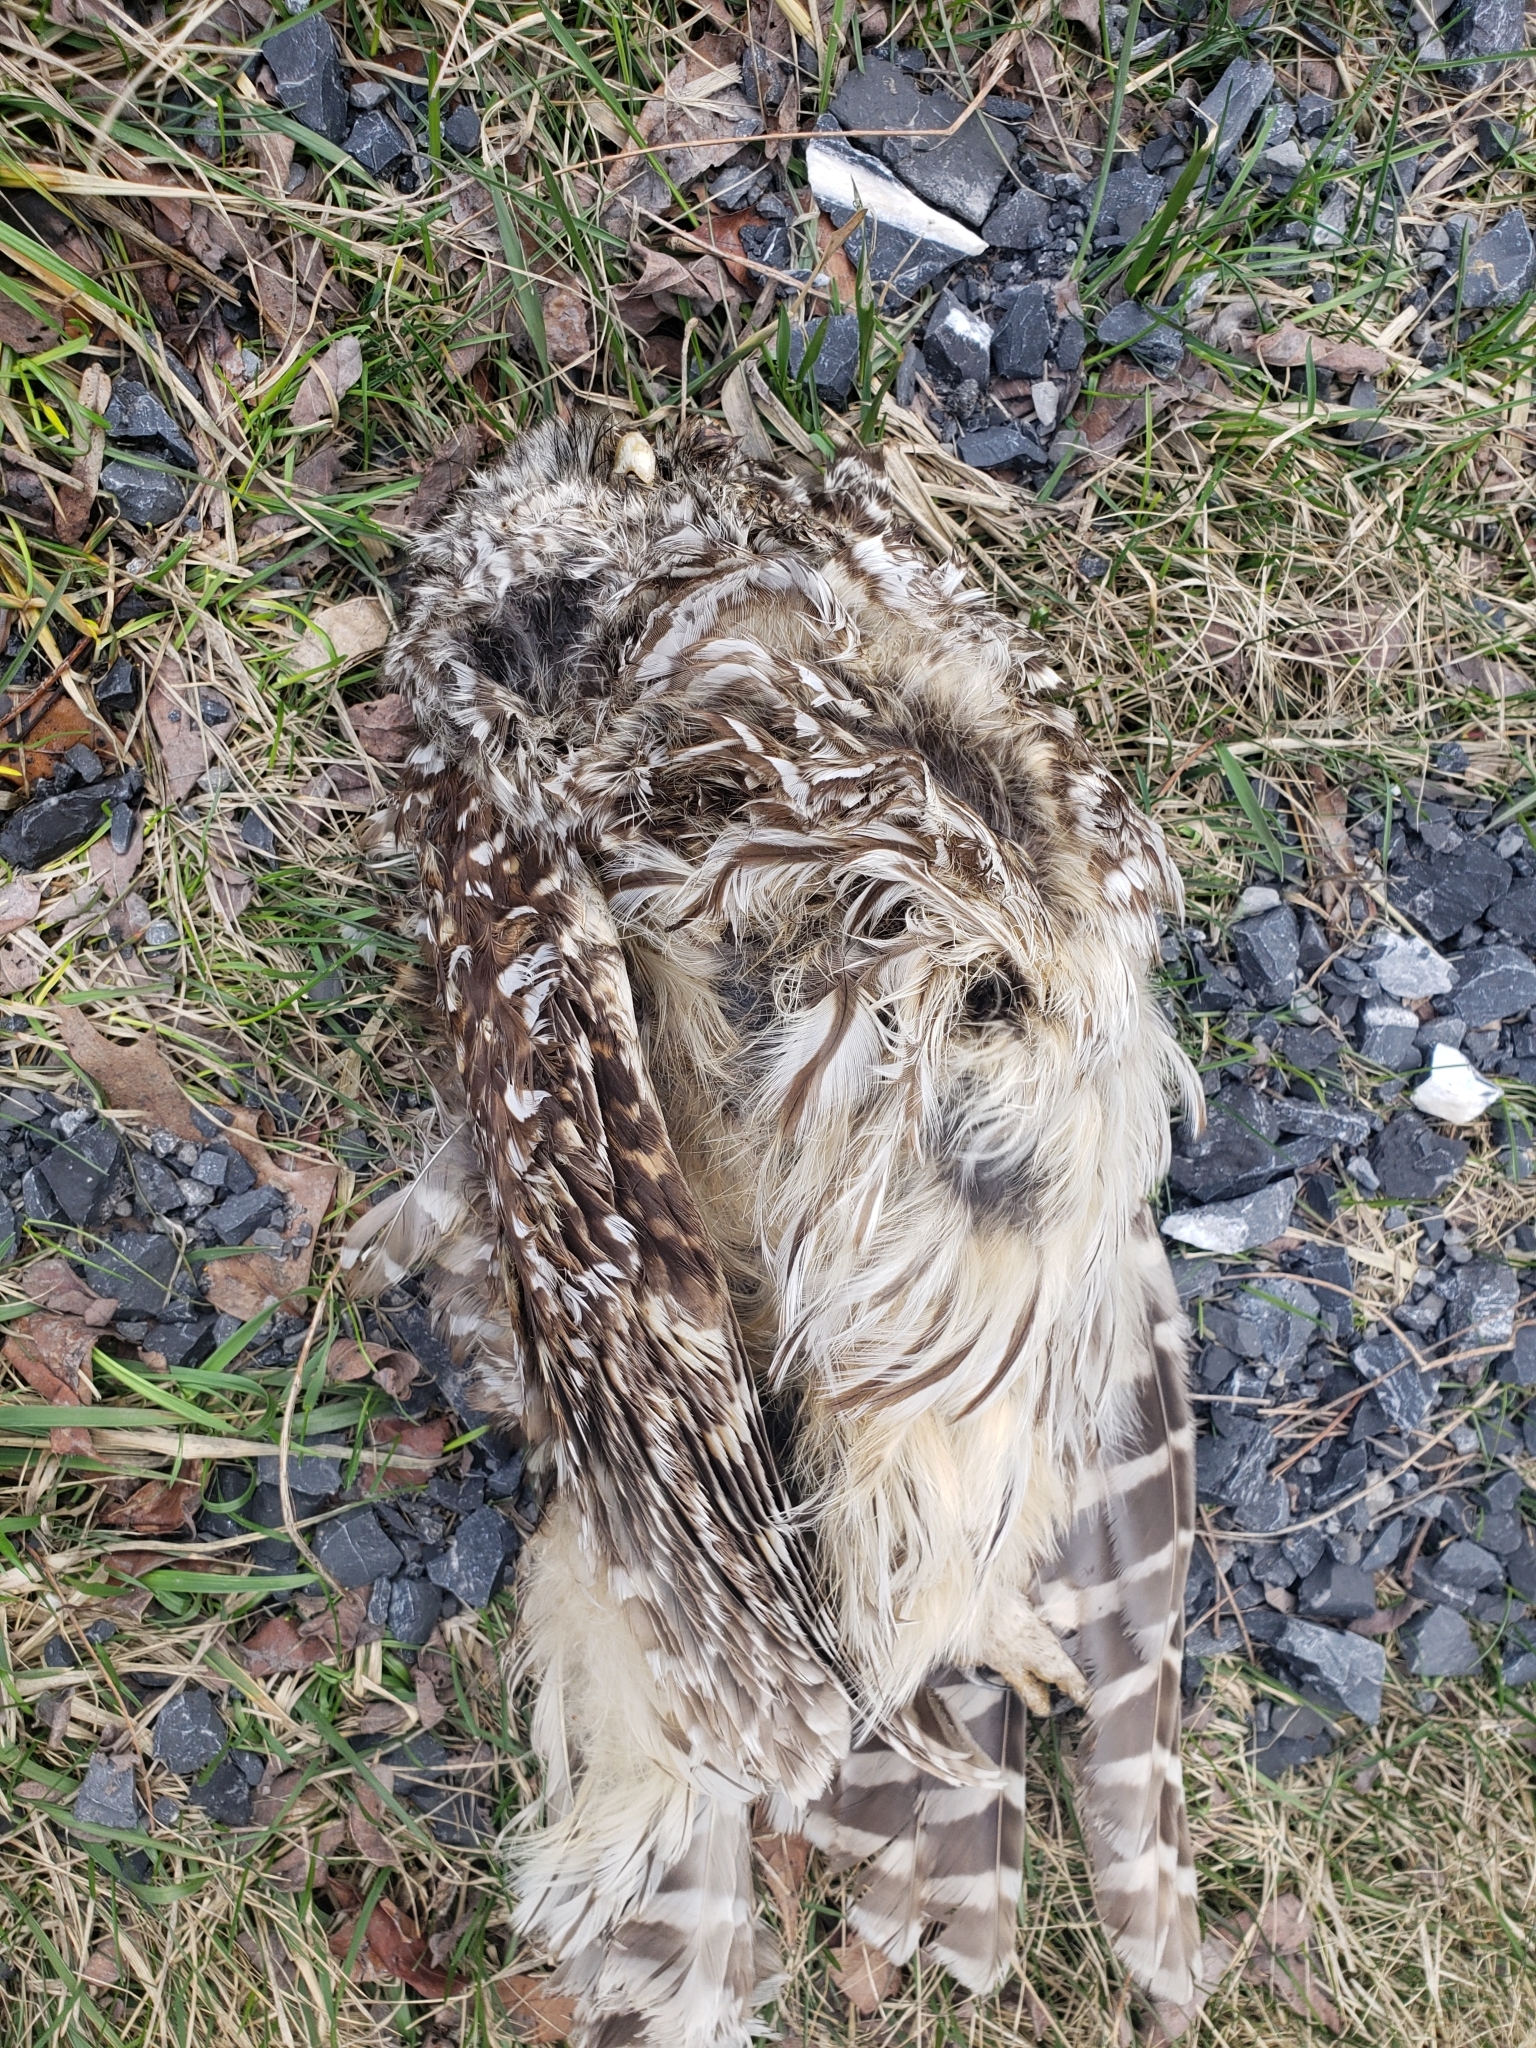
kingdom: Animalia
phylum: Chordata
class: Aves
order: Strigiformes
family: Strigidae
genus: Strix
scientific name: Strix varia
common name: Barred owl
